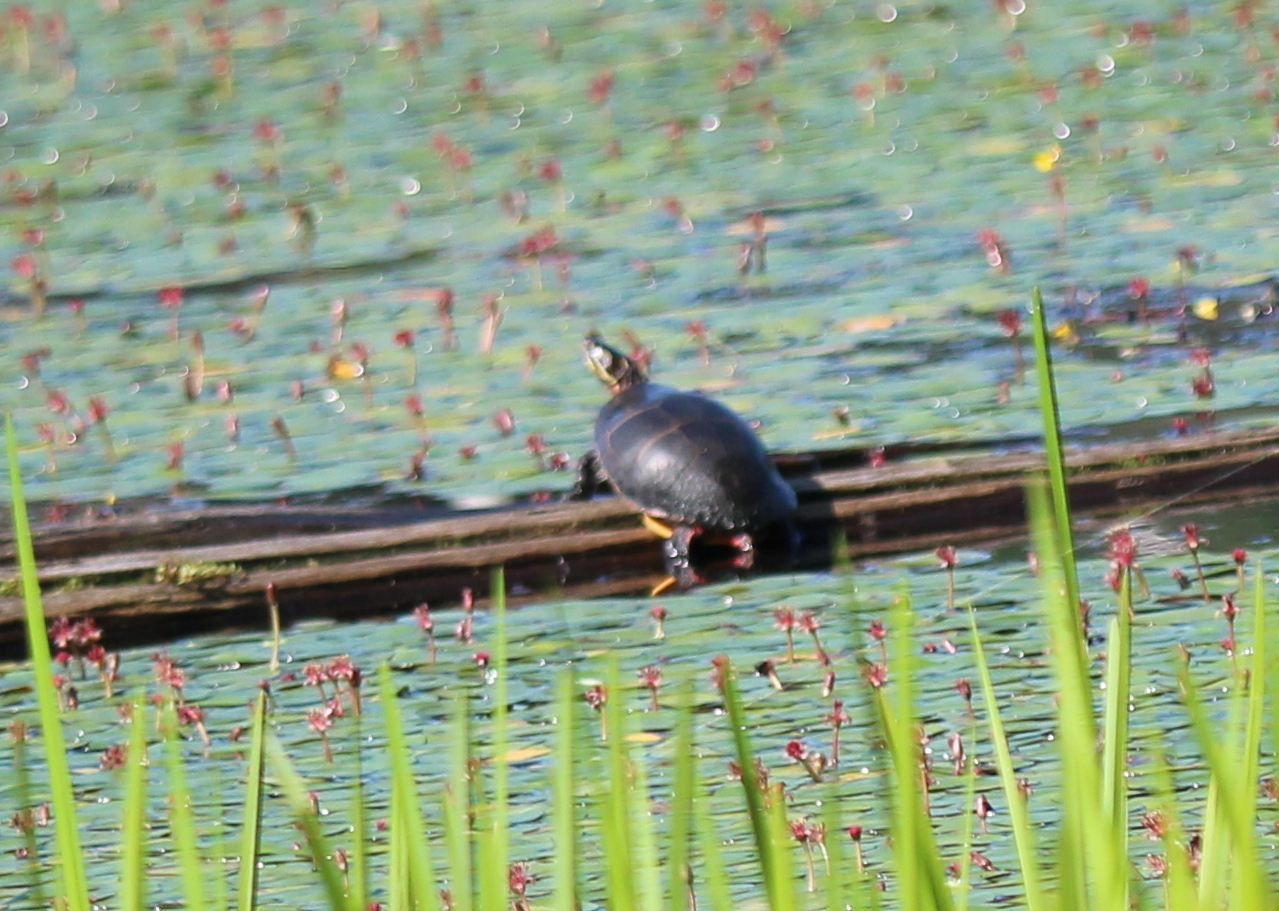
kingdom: Animalia
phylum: Chordata
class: Testudines
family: Emydidae
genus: Chrysemys
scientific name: Chrysemys picta
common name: Painted turtle
